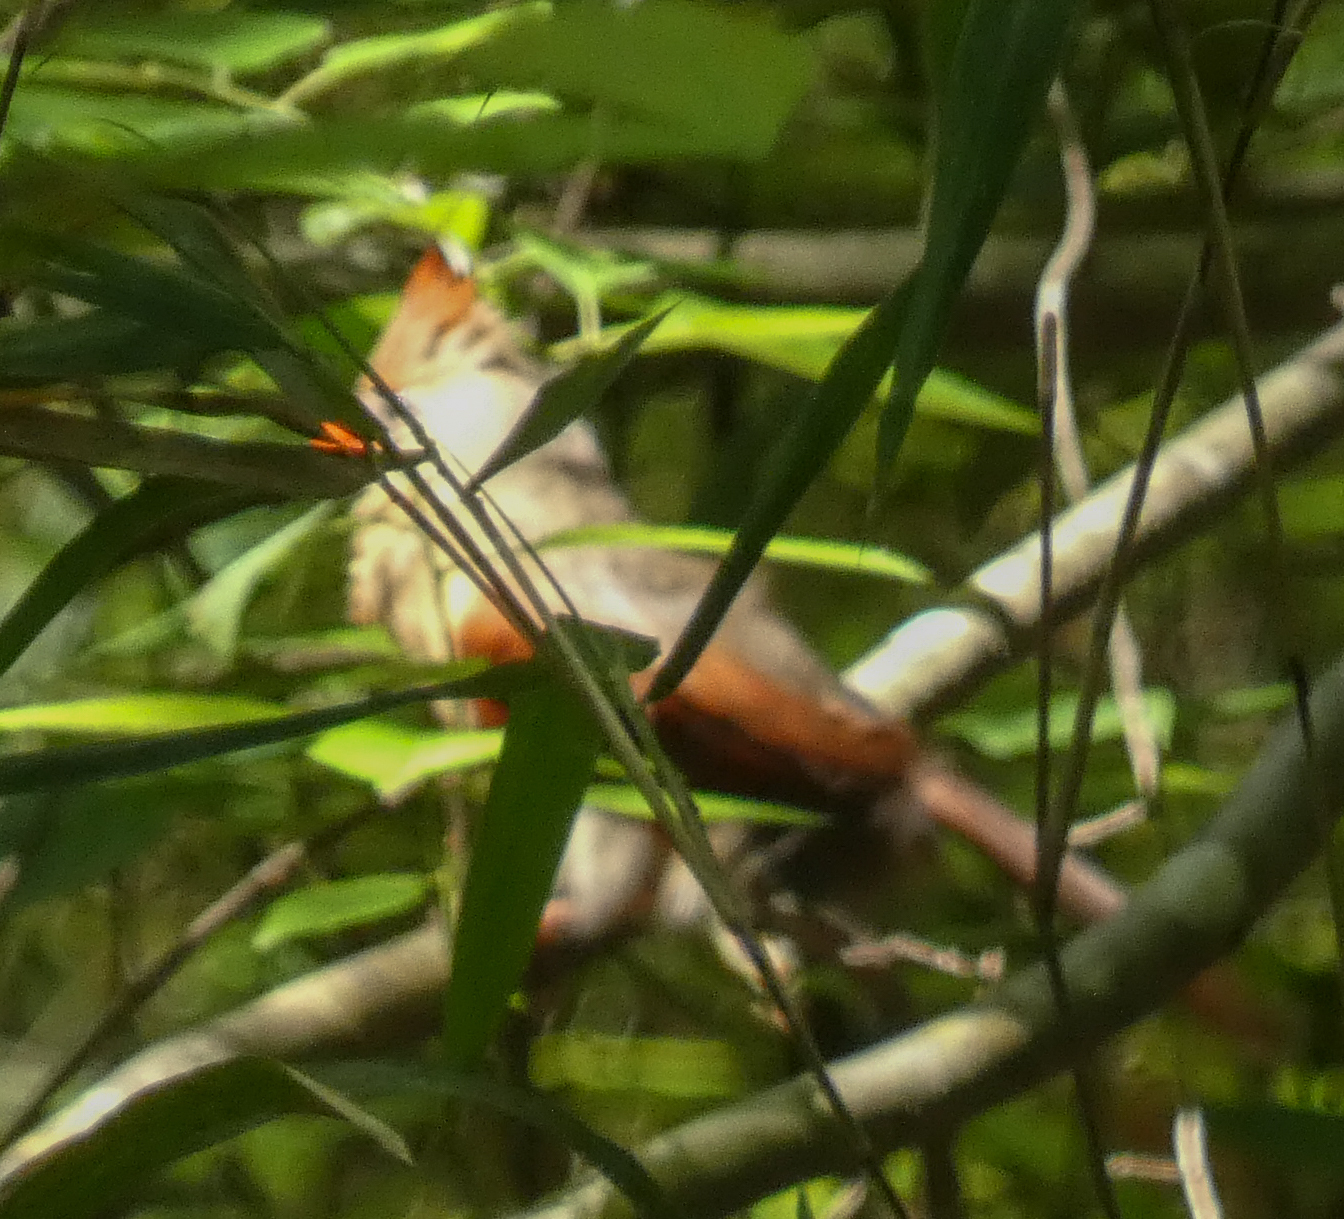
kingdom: Animalia
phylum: Chordata
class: Aves
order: Passeriformes
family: Cardinalidae
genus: Cardinalis
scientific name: Cardinalis cardinalis
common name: Northern cardinal
